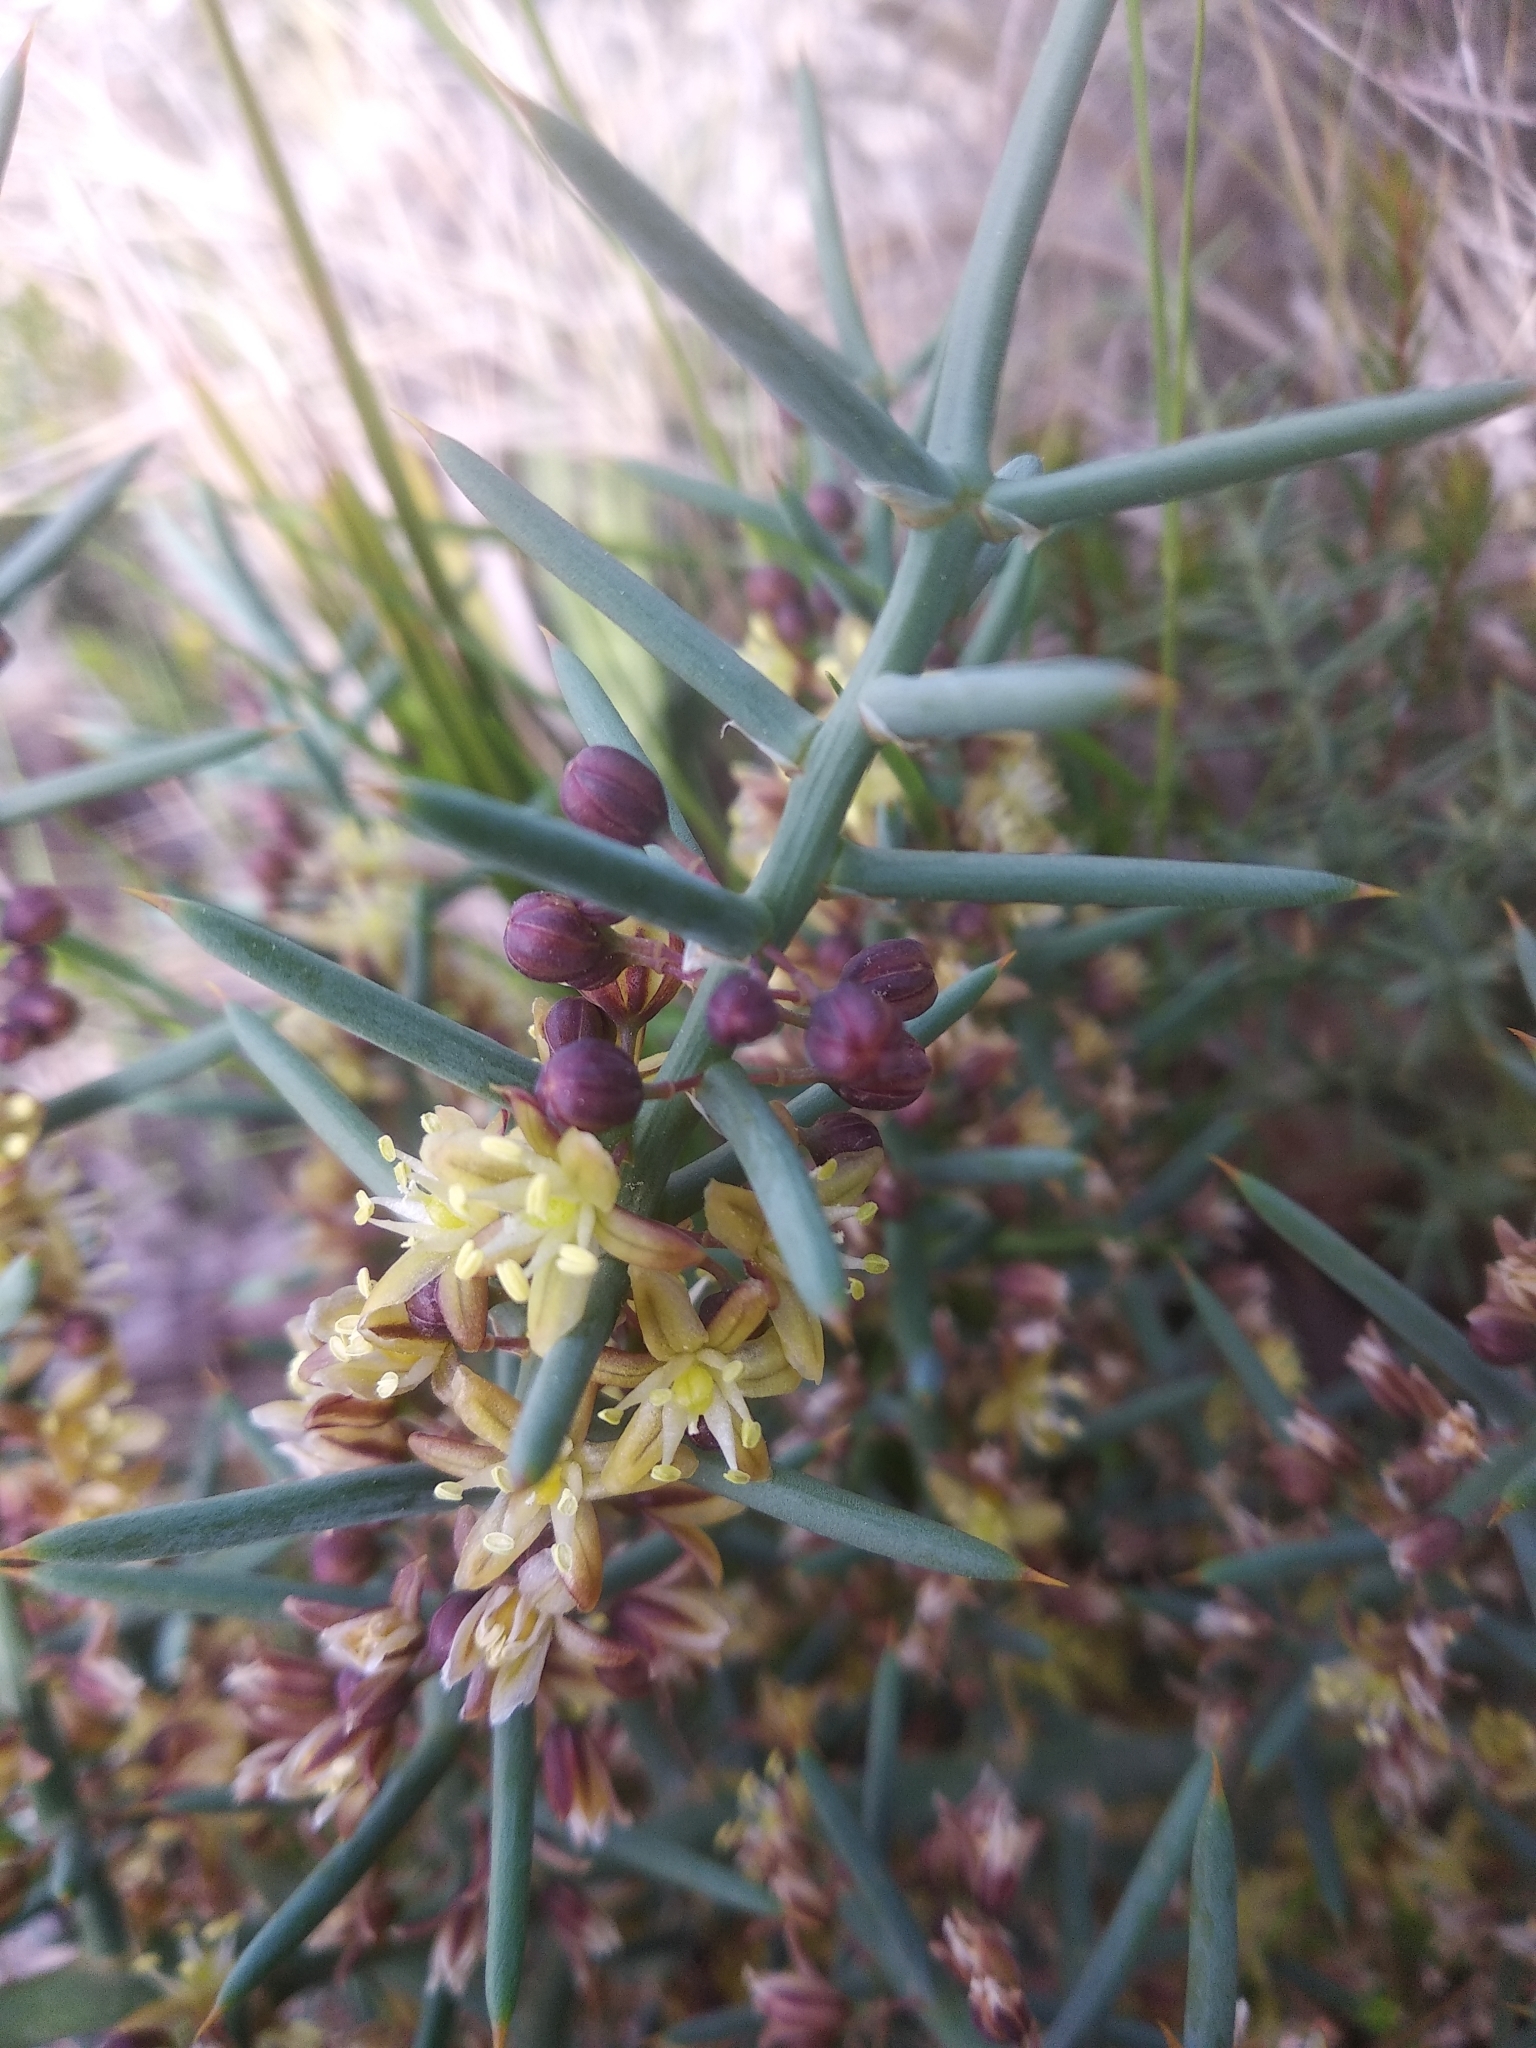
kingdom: Plantae
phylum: Tracheophyta
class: Liliopsida
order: Asparagales
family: Asparagaceae
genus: Asparagus
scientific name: Asparagus horridus
